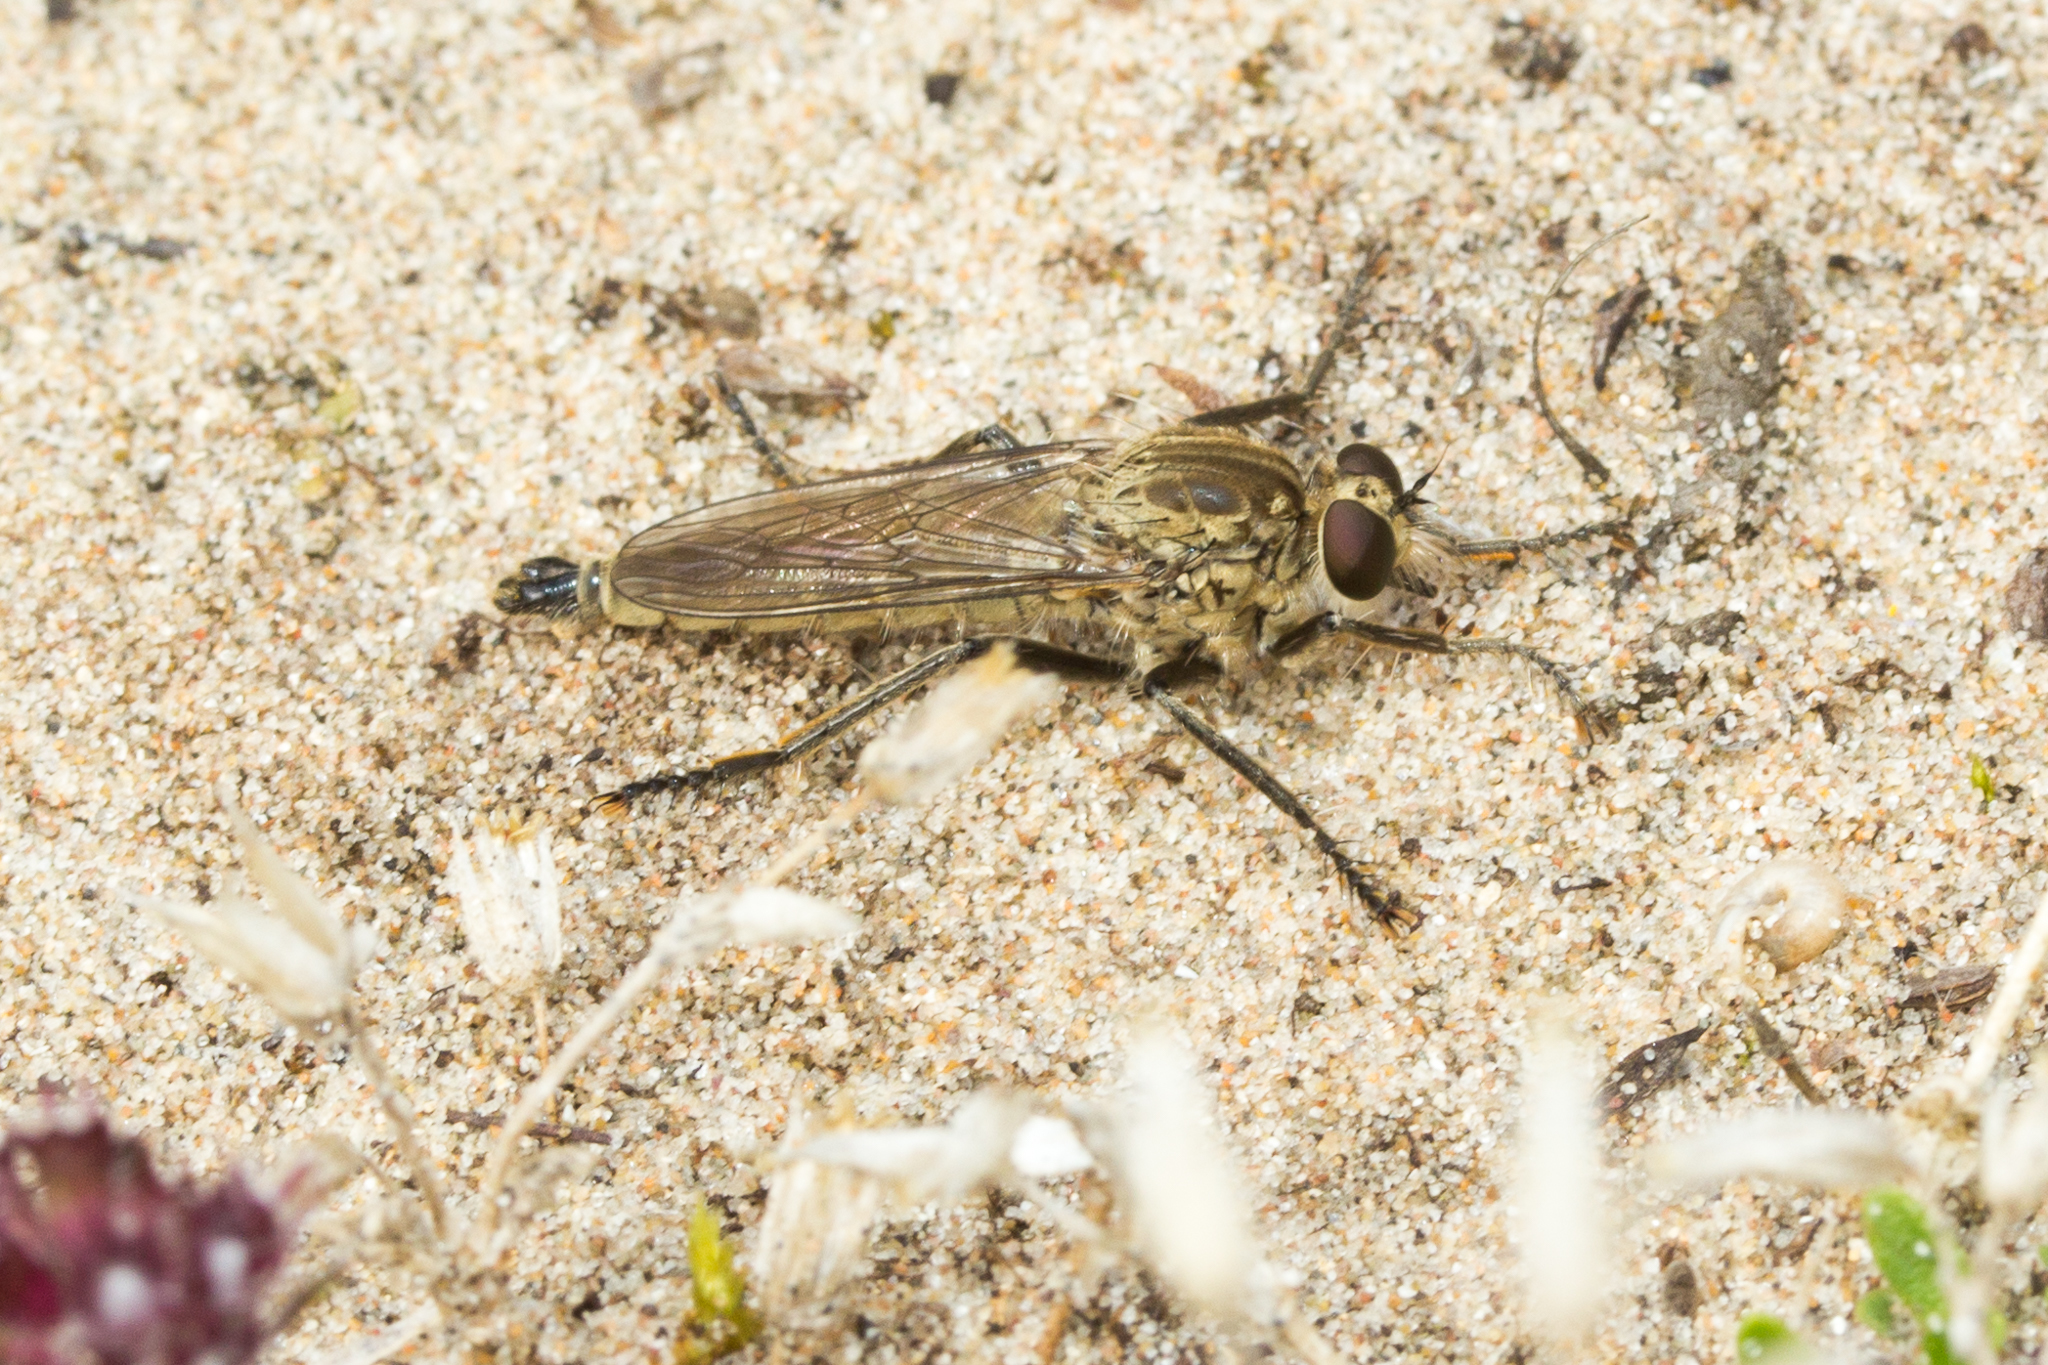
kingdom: Animalia
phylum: Arthropoda
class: Insecta
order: Diptera
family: Asilidae
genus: Philonicus
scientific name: Philonicus albiceps
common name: Dune robberfly
